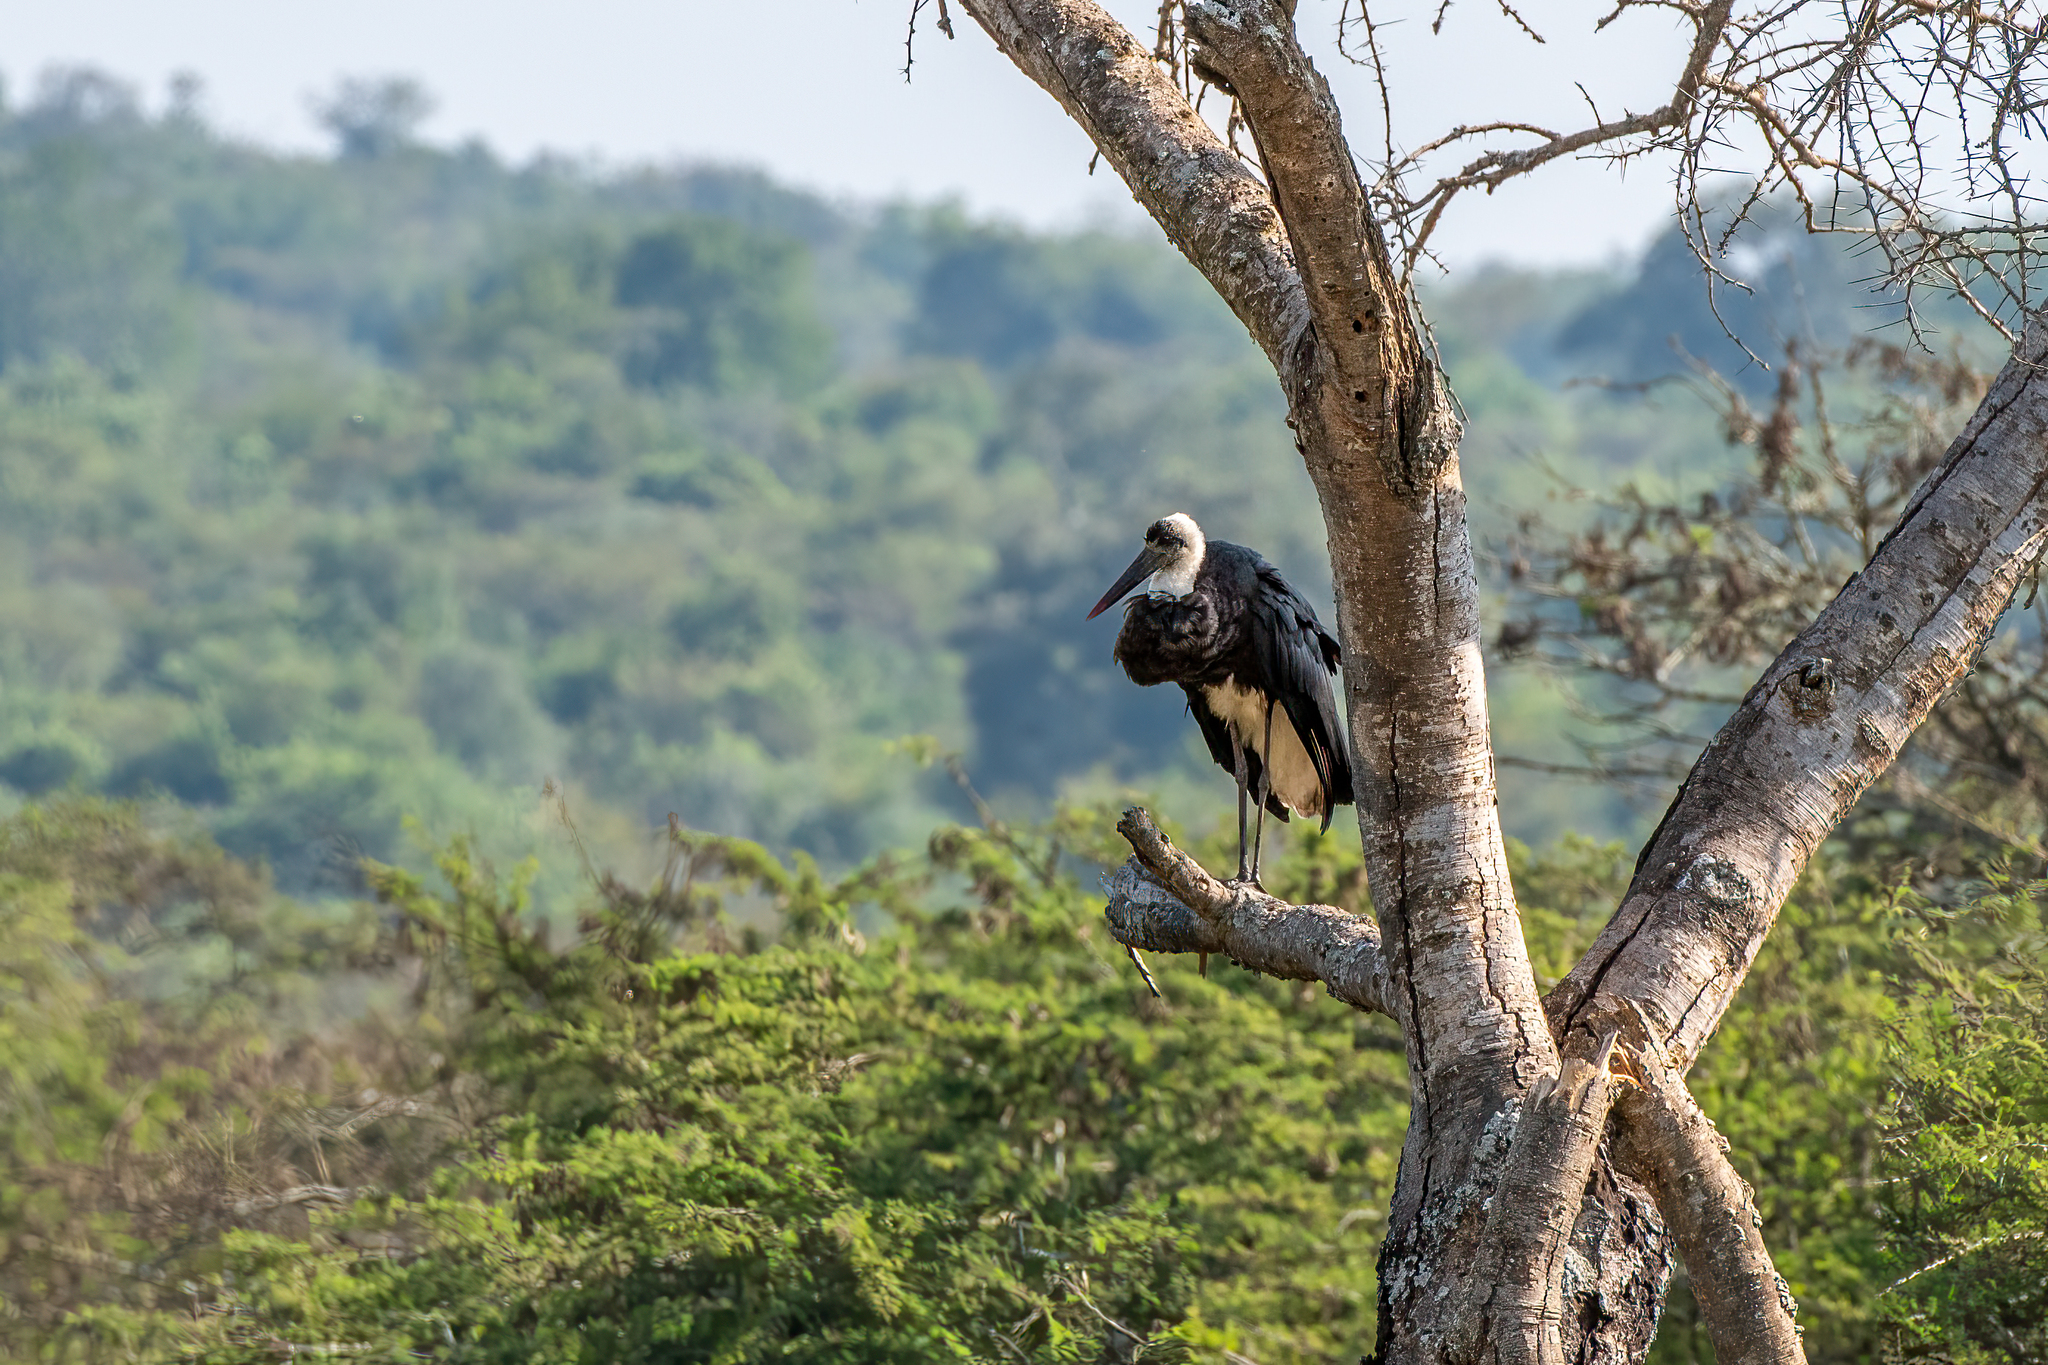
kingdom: Animalia
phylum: Chordata
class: Aves
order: Ciconiiformes
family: Ciconiidae
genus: Ciconia
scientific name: Ciconia microscelis
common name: African woollyneck
